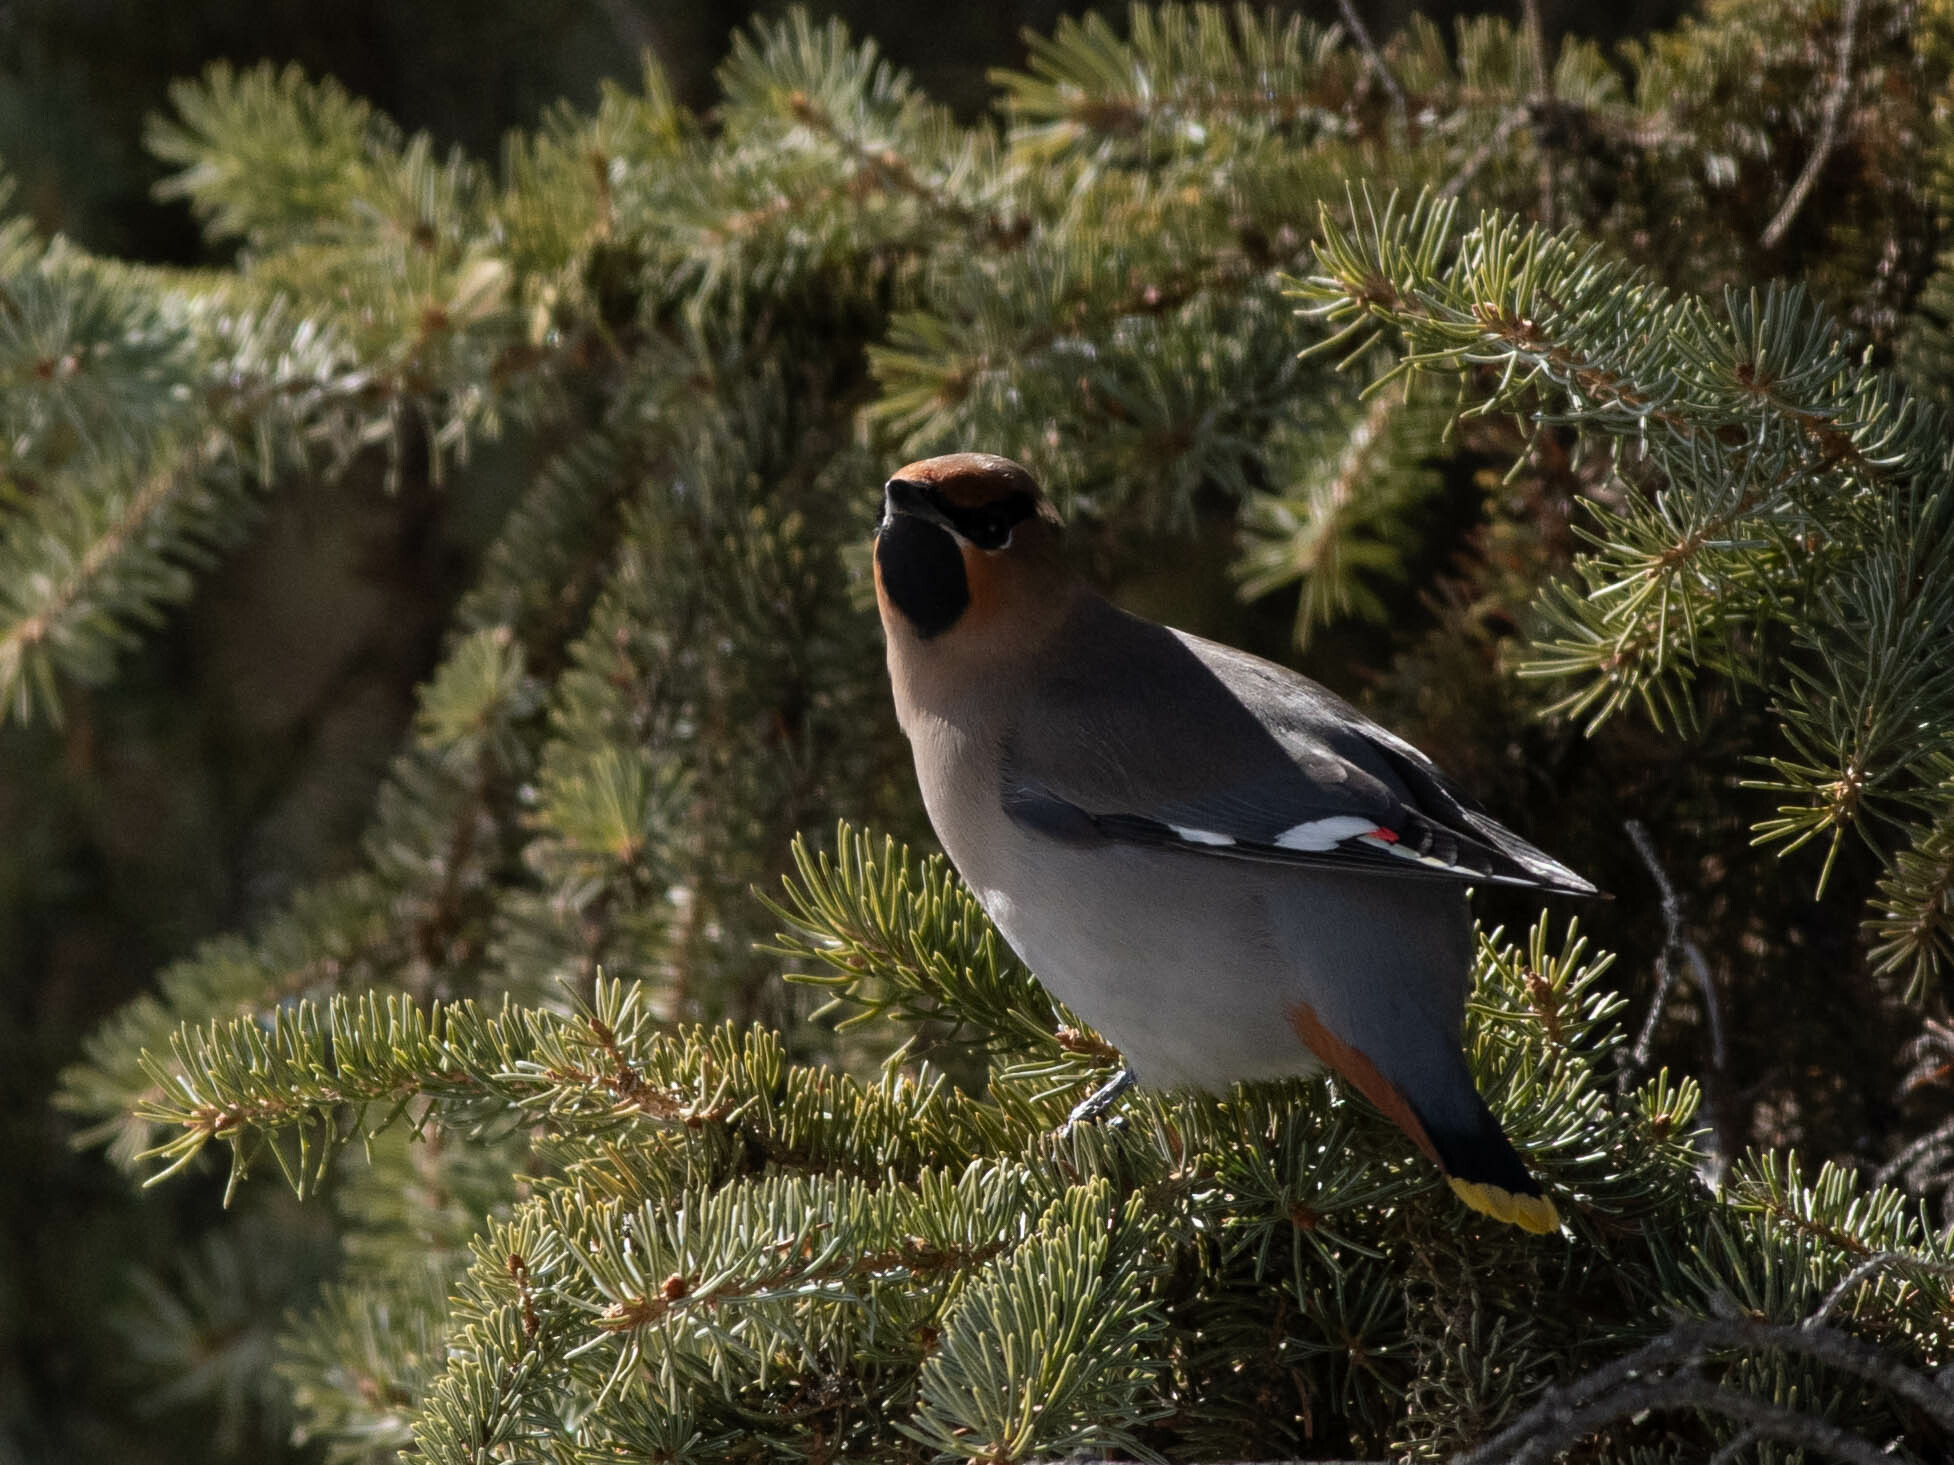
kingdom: Animalia
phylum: Chordata
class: Aves
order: Passeriformes
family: Bombycillidae
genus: Bombycilla
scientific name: Bombycilla garrulus
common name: Bohemian waxwing
